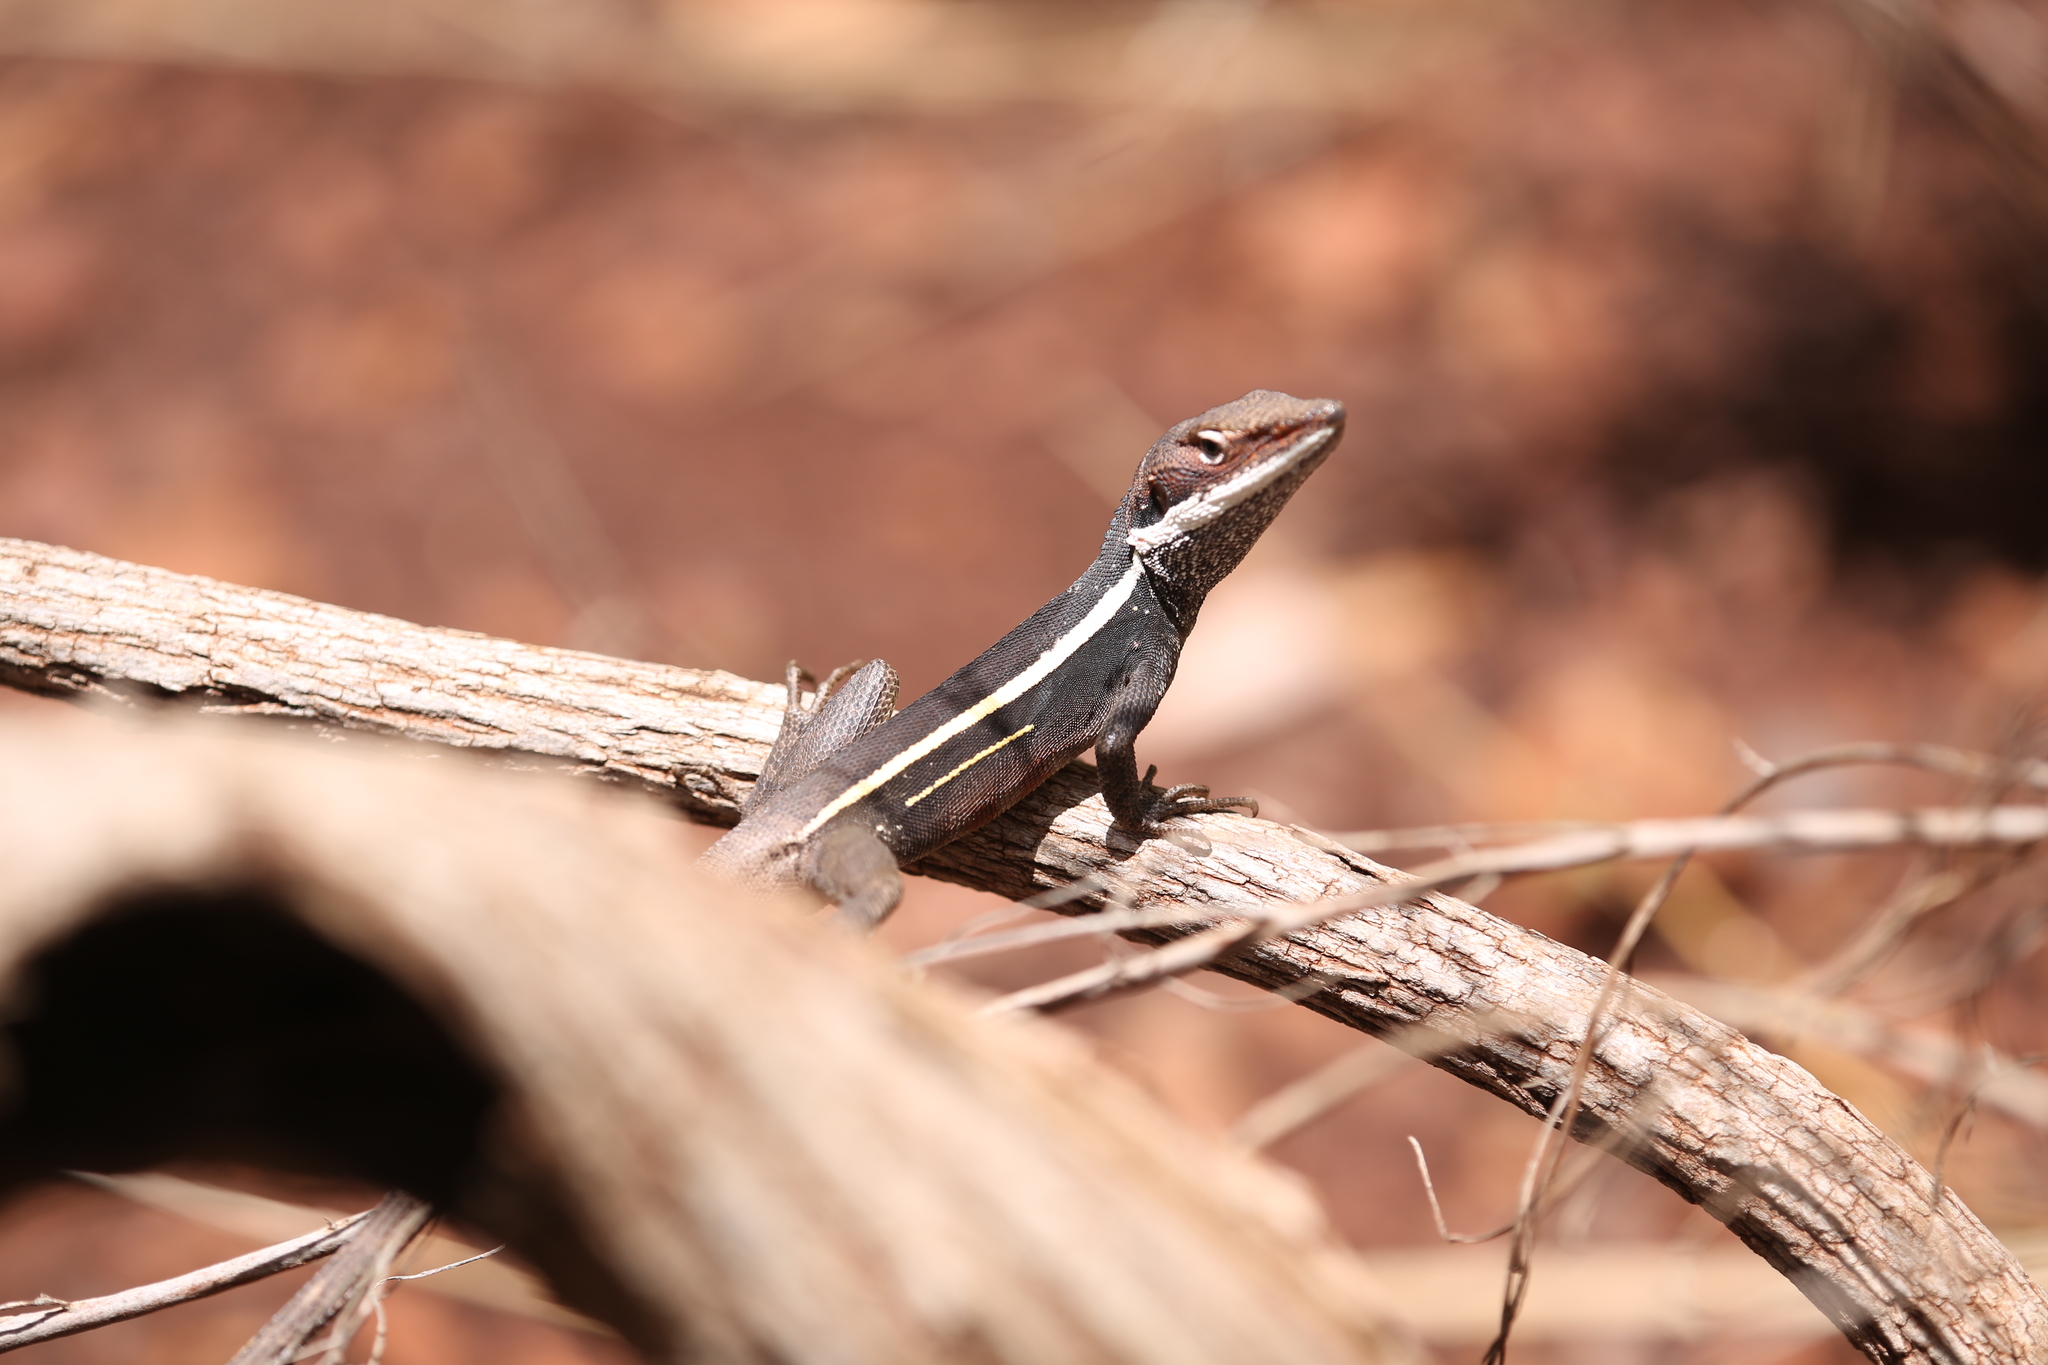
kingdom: Animalia
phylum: Chordata
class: Squamata
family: Agamidae
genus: Gowidon
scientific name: Gowidon longirostris
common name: Long-nosed water dragon
